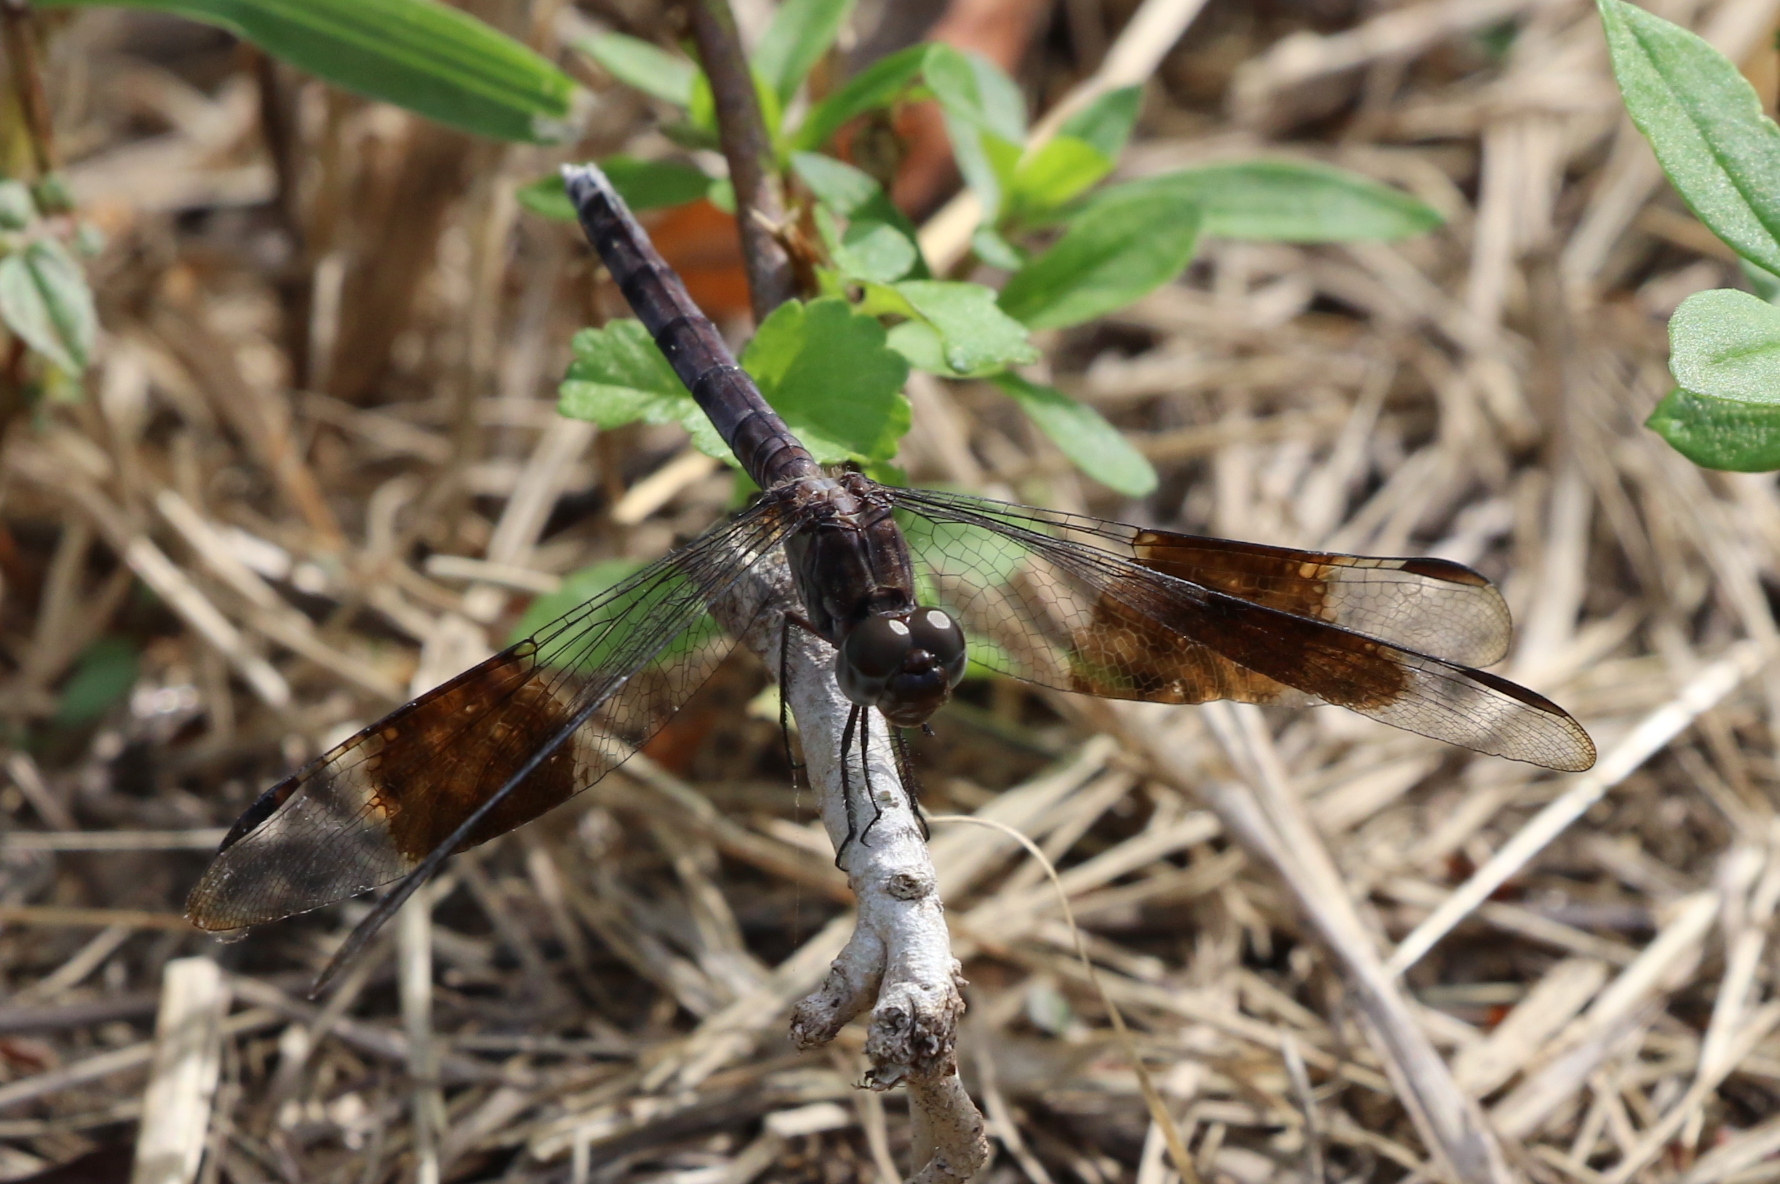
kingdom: Animalia
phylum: Arthropoda
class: Insecta
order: Odonata
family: Libellulidae
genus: Erythrodiplax
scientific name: Erythrodiplax umbrata
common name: Band-winged dragonlet
